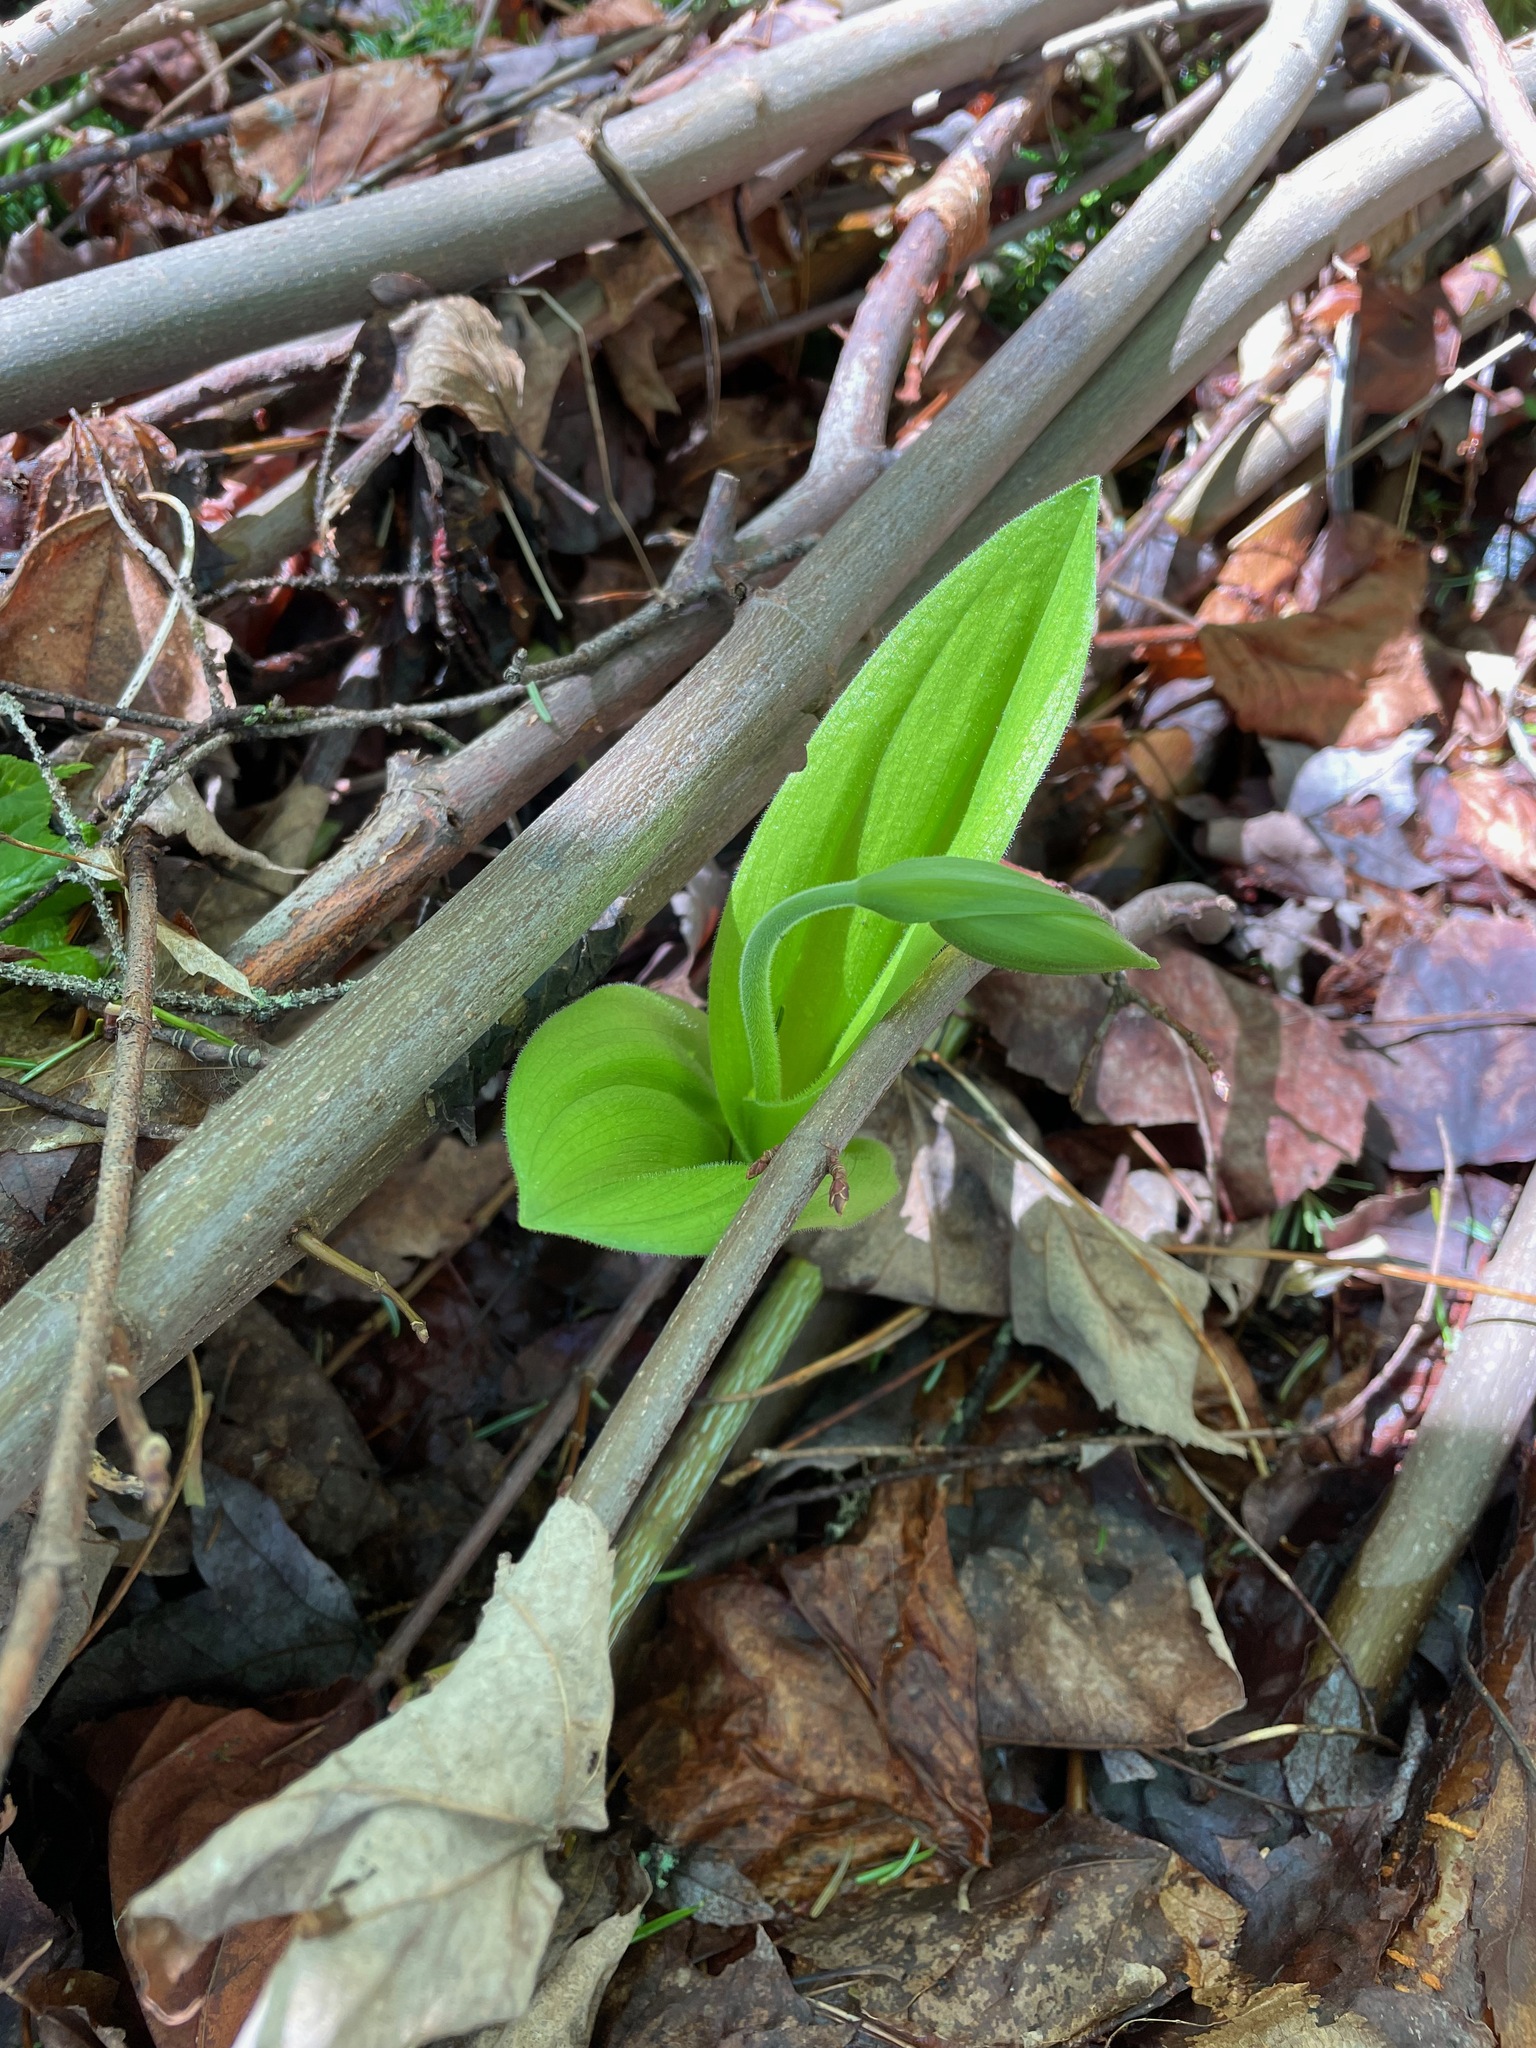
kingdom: Plantae
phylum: Tracheophyta
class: Liliopsida
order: Asparagales
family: Orchidaceae
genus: Cypripedium
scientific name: Cypripedium acaule
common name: Pink lady's-slipper
